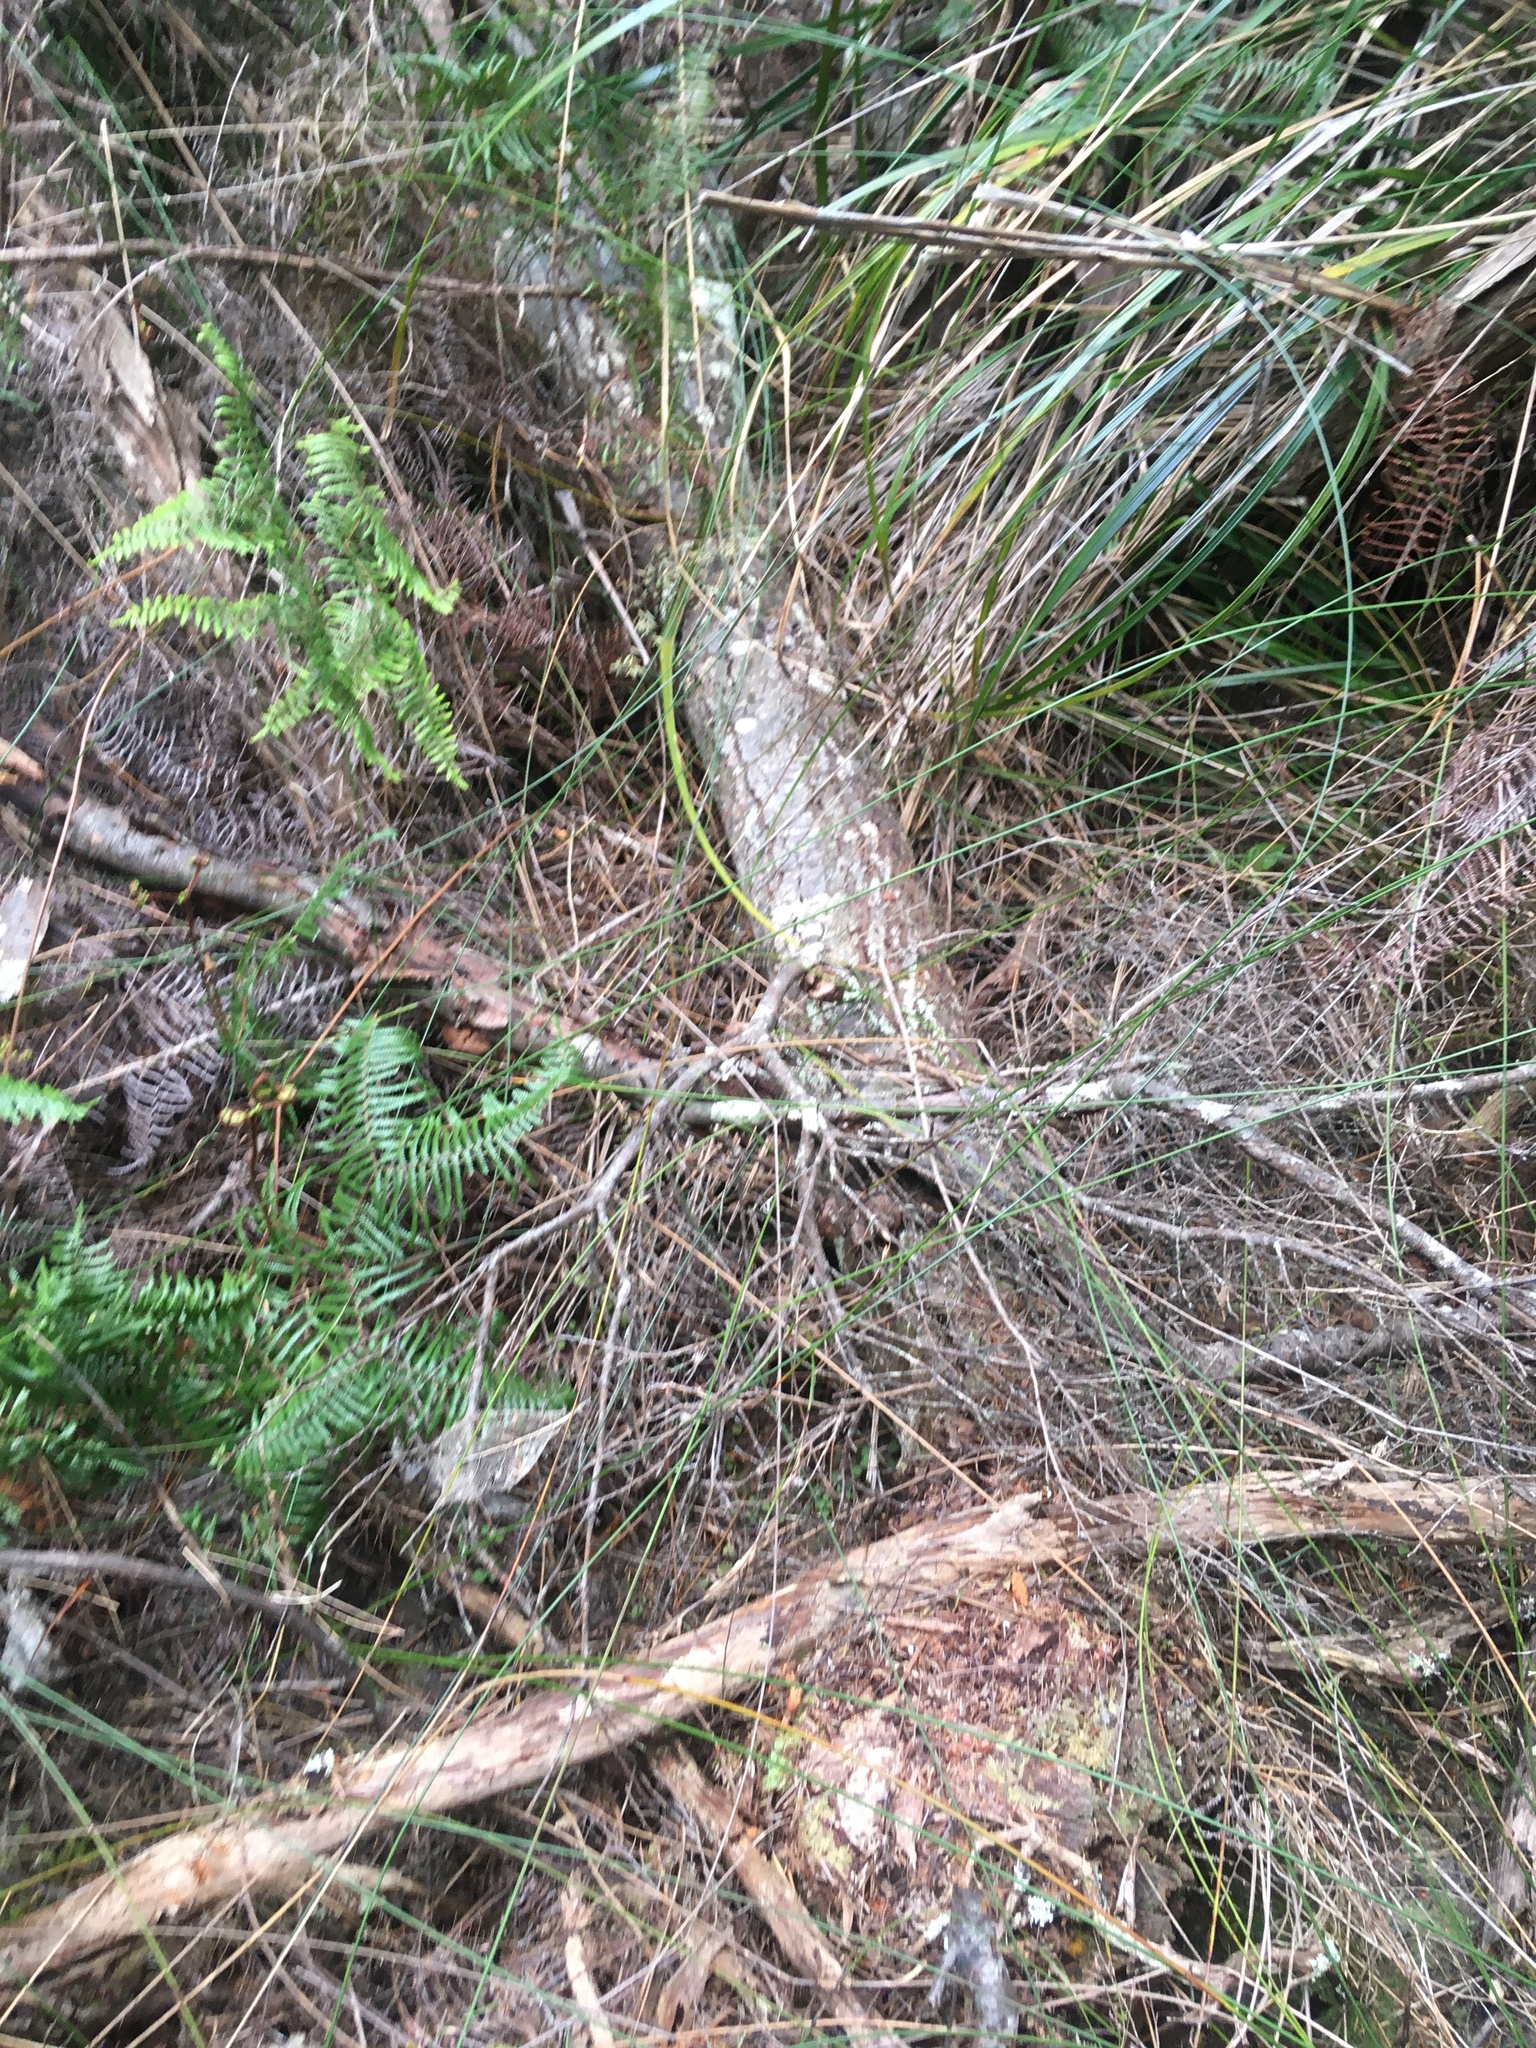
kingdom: Plantae
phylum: Tracheophyta
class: Magnoliopsida
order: Proteales
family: Proteaceae
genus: Hakea
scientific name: Hakea sericea
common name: Needle bush
